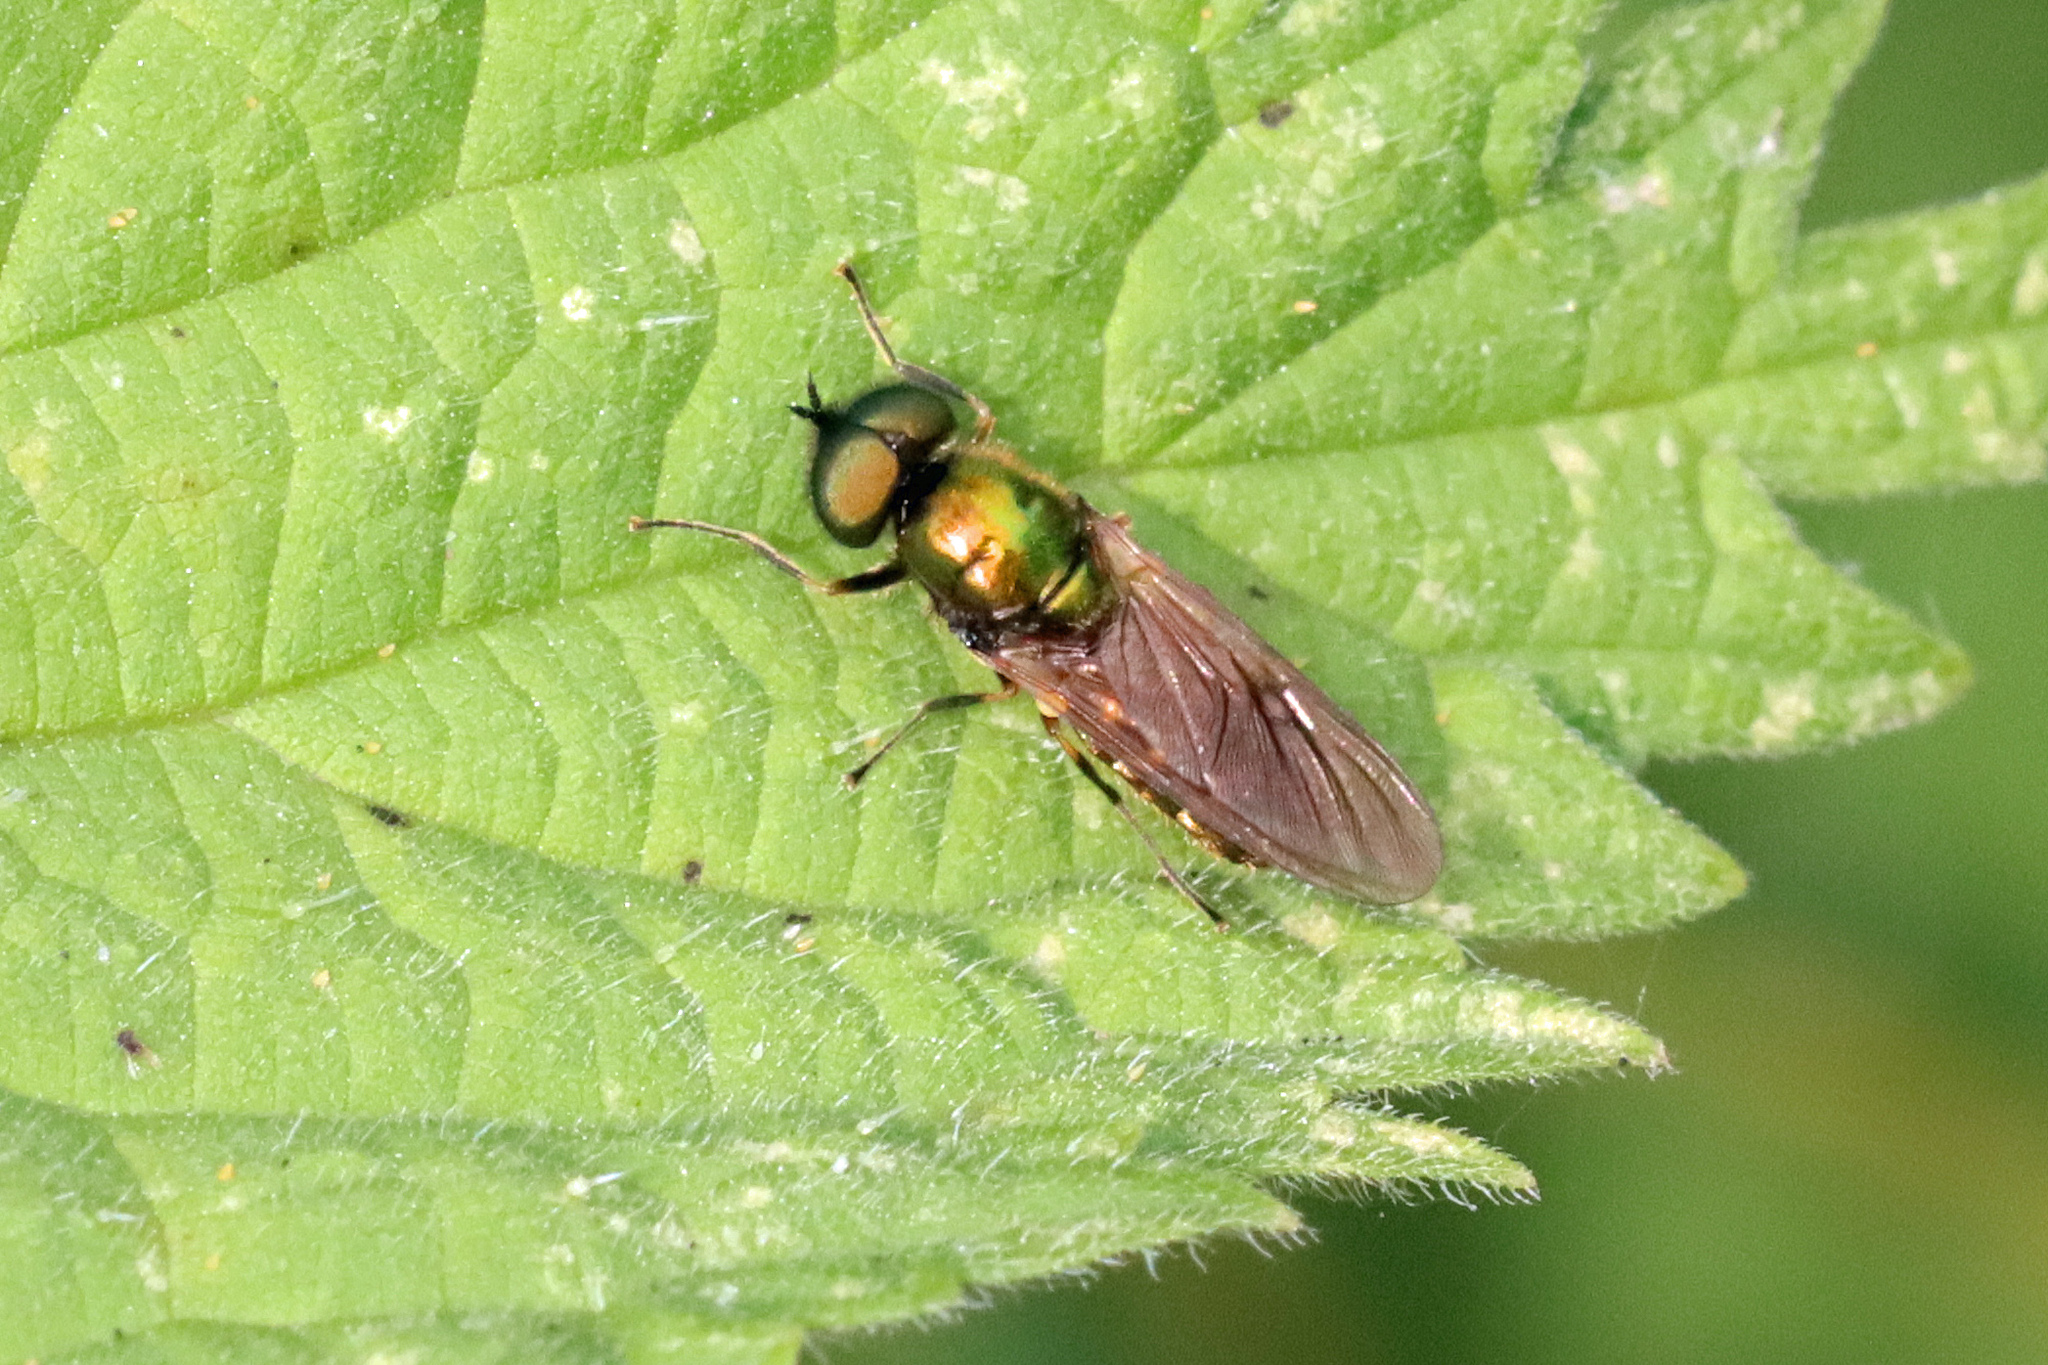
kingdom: Animalia
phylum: Arthropoda
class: Insecta
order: Diptera
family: Stratiomyidae
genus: Chloromyia
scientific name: Chloromyia formosa
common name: Soldier fly
